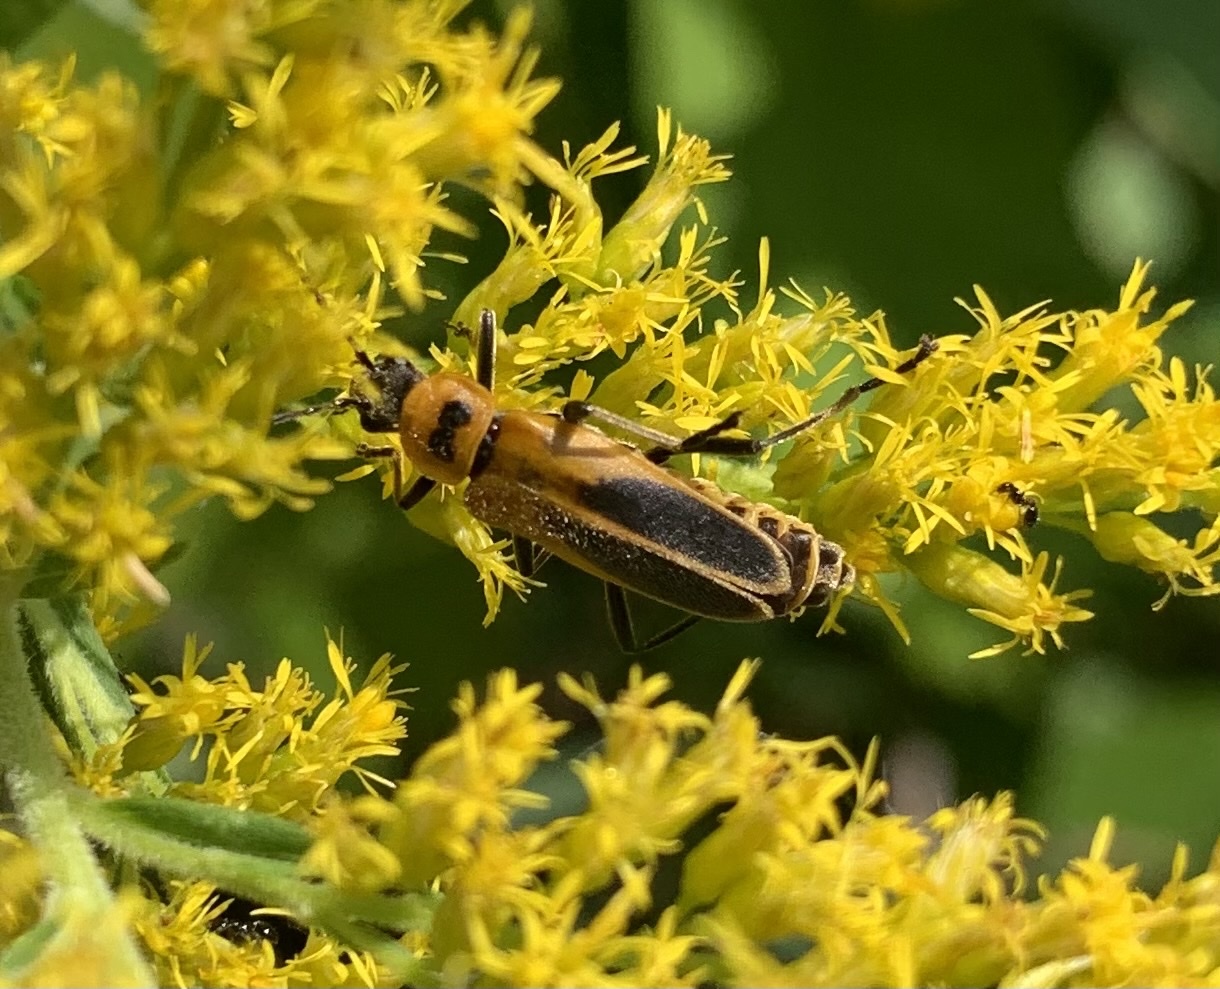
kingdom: Animalia
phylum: Arthropoda
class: Insecta
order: Coleoptera
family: Cantharidae
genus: Chauliognathus
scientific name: Chauliognathus pensylvanicus
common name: Goldenrod soldier beetle
